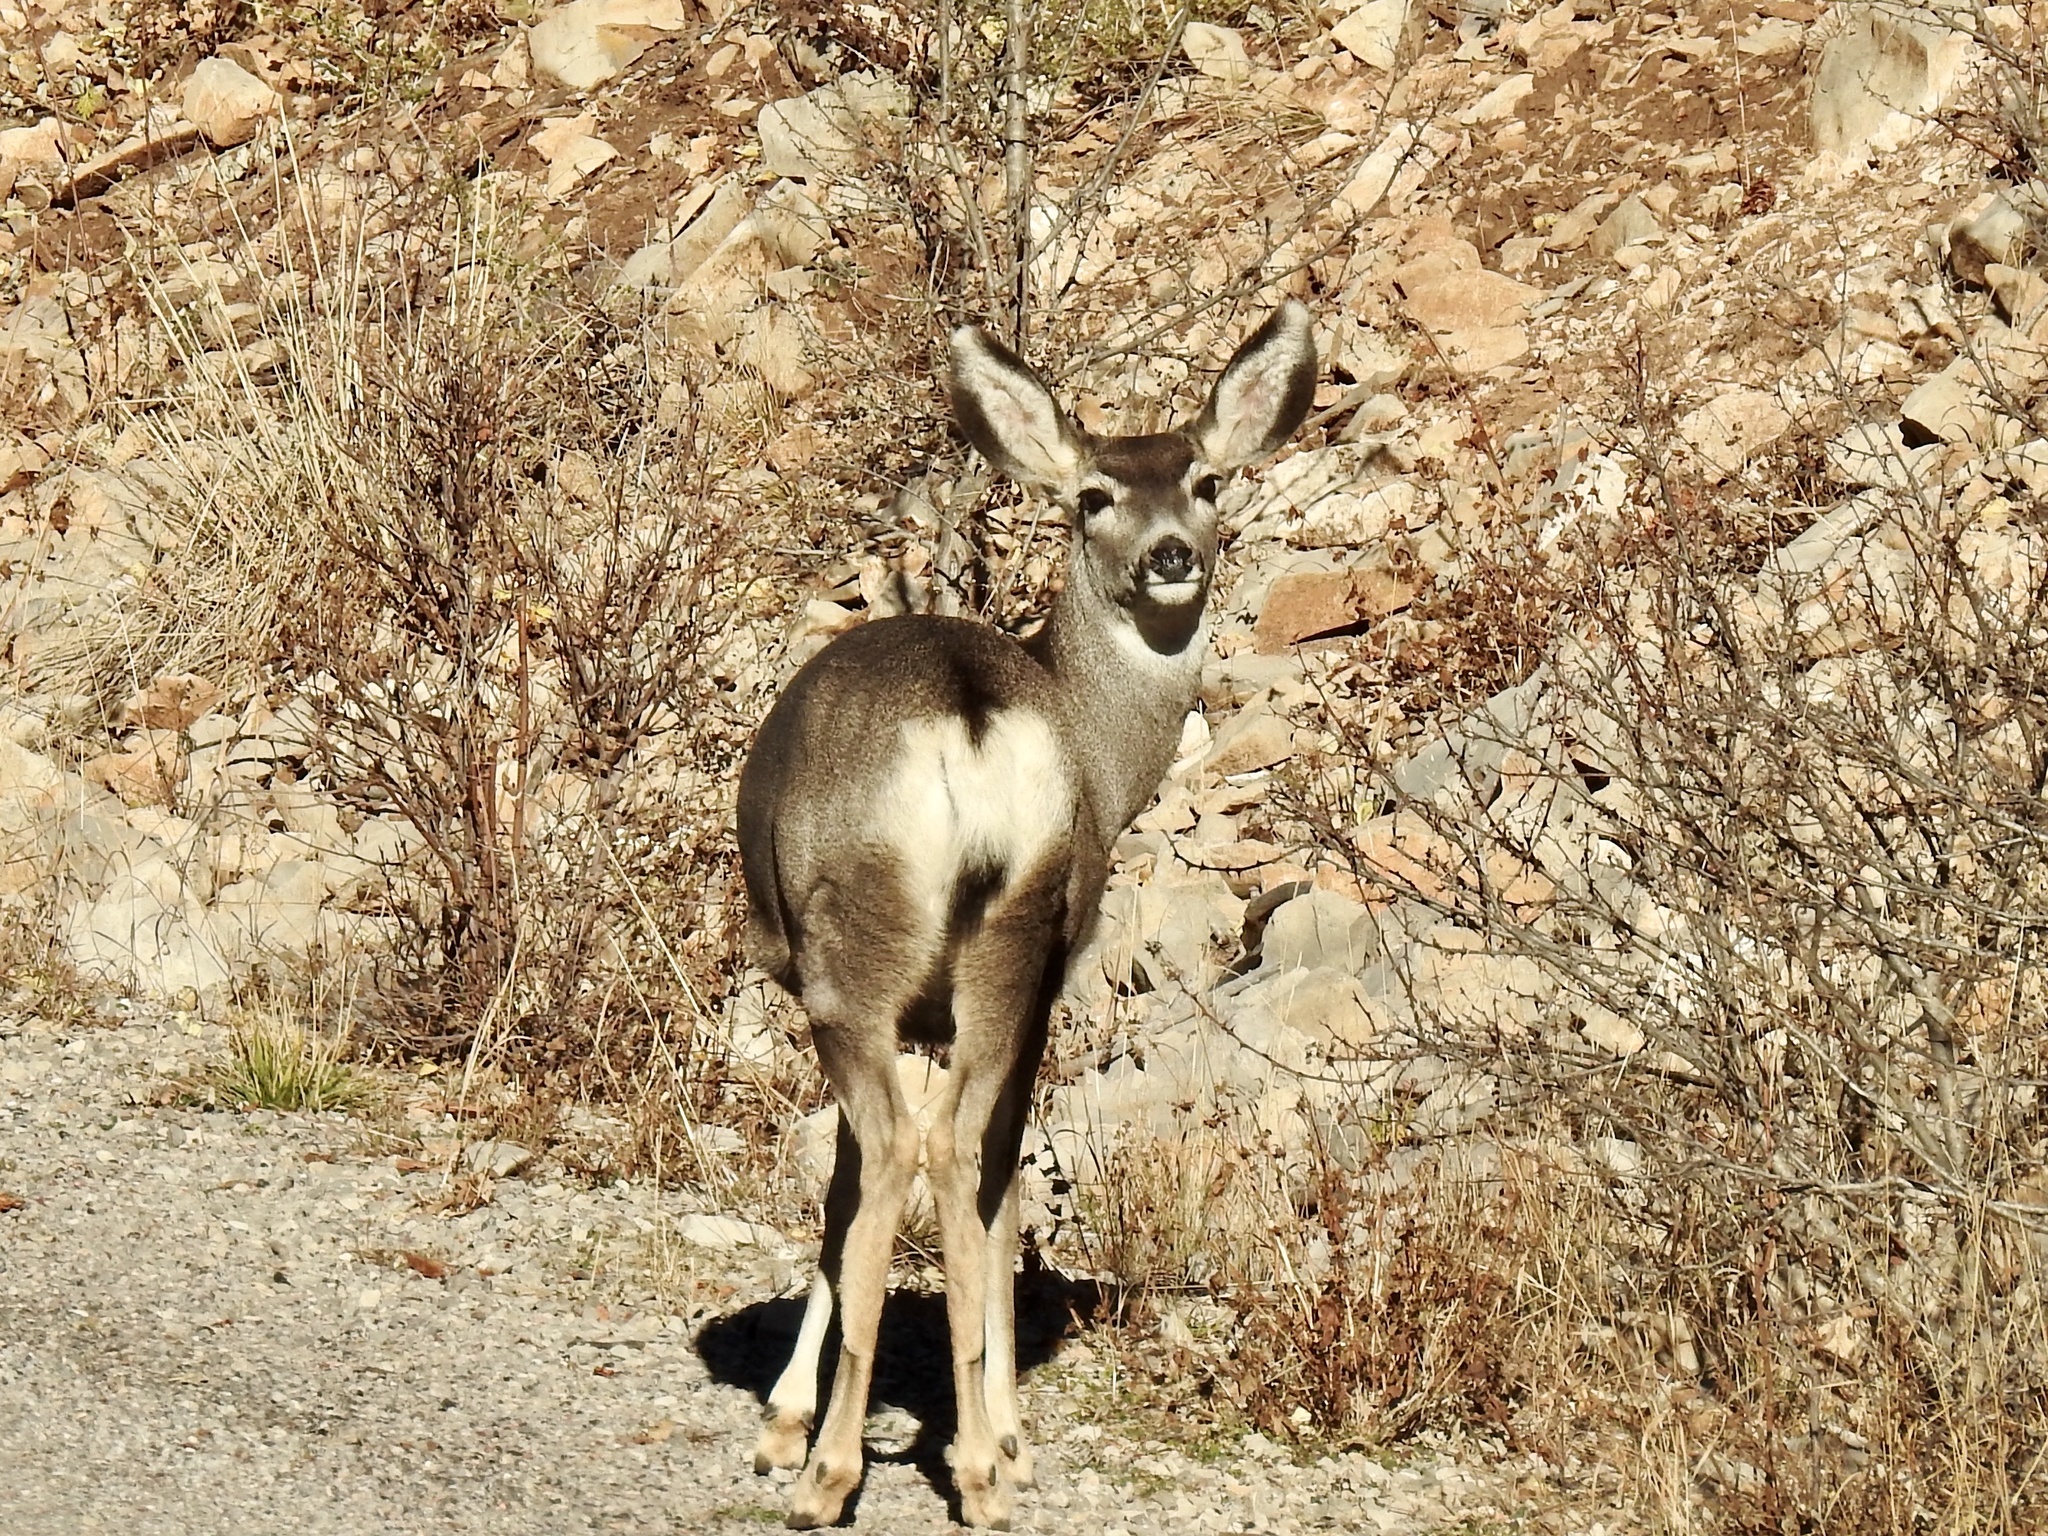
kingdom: Animalia
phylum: Chordata
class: Mammalia
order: Artiodactyla
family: Cervidae
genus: Odocoileus
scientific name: Odocoileus hemionus
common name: Mule deer
